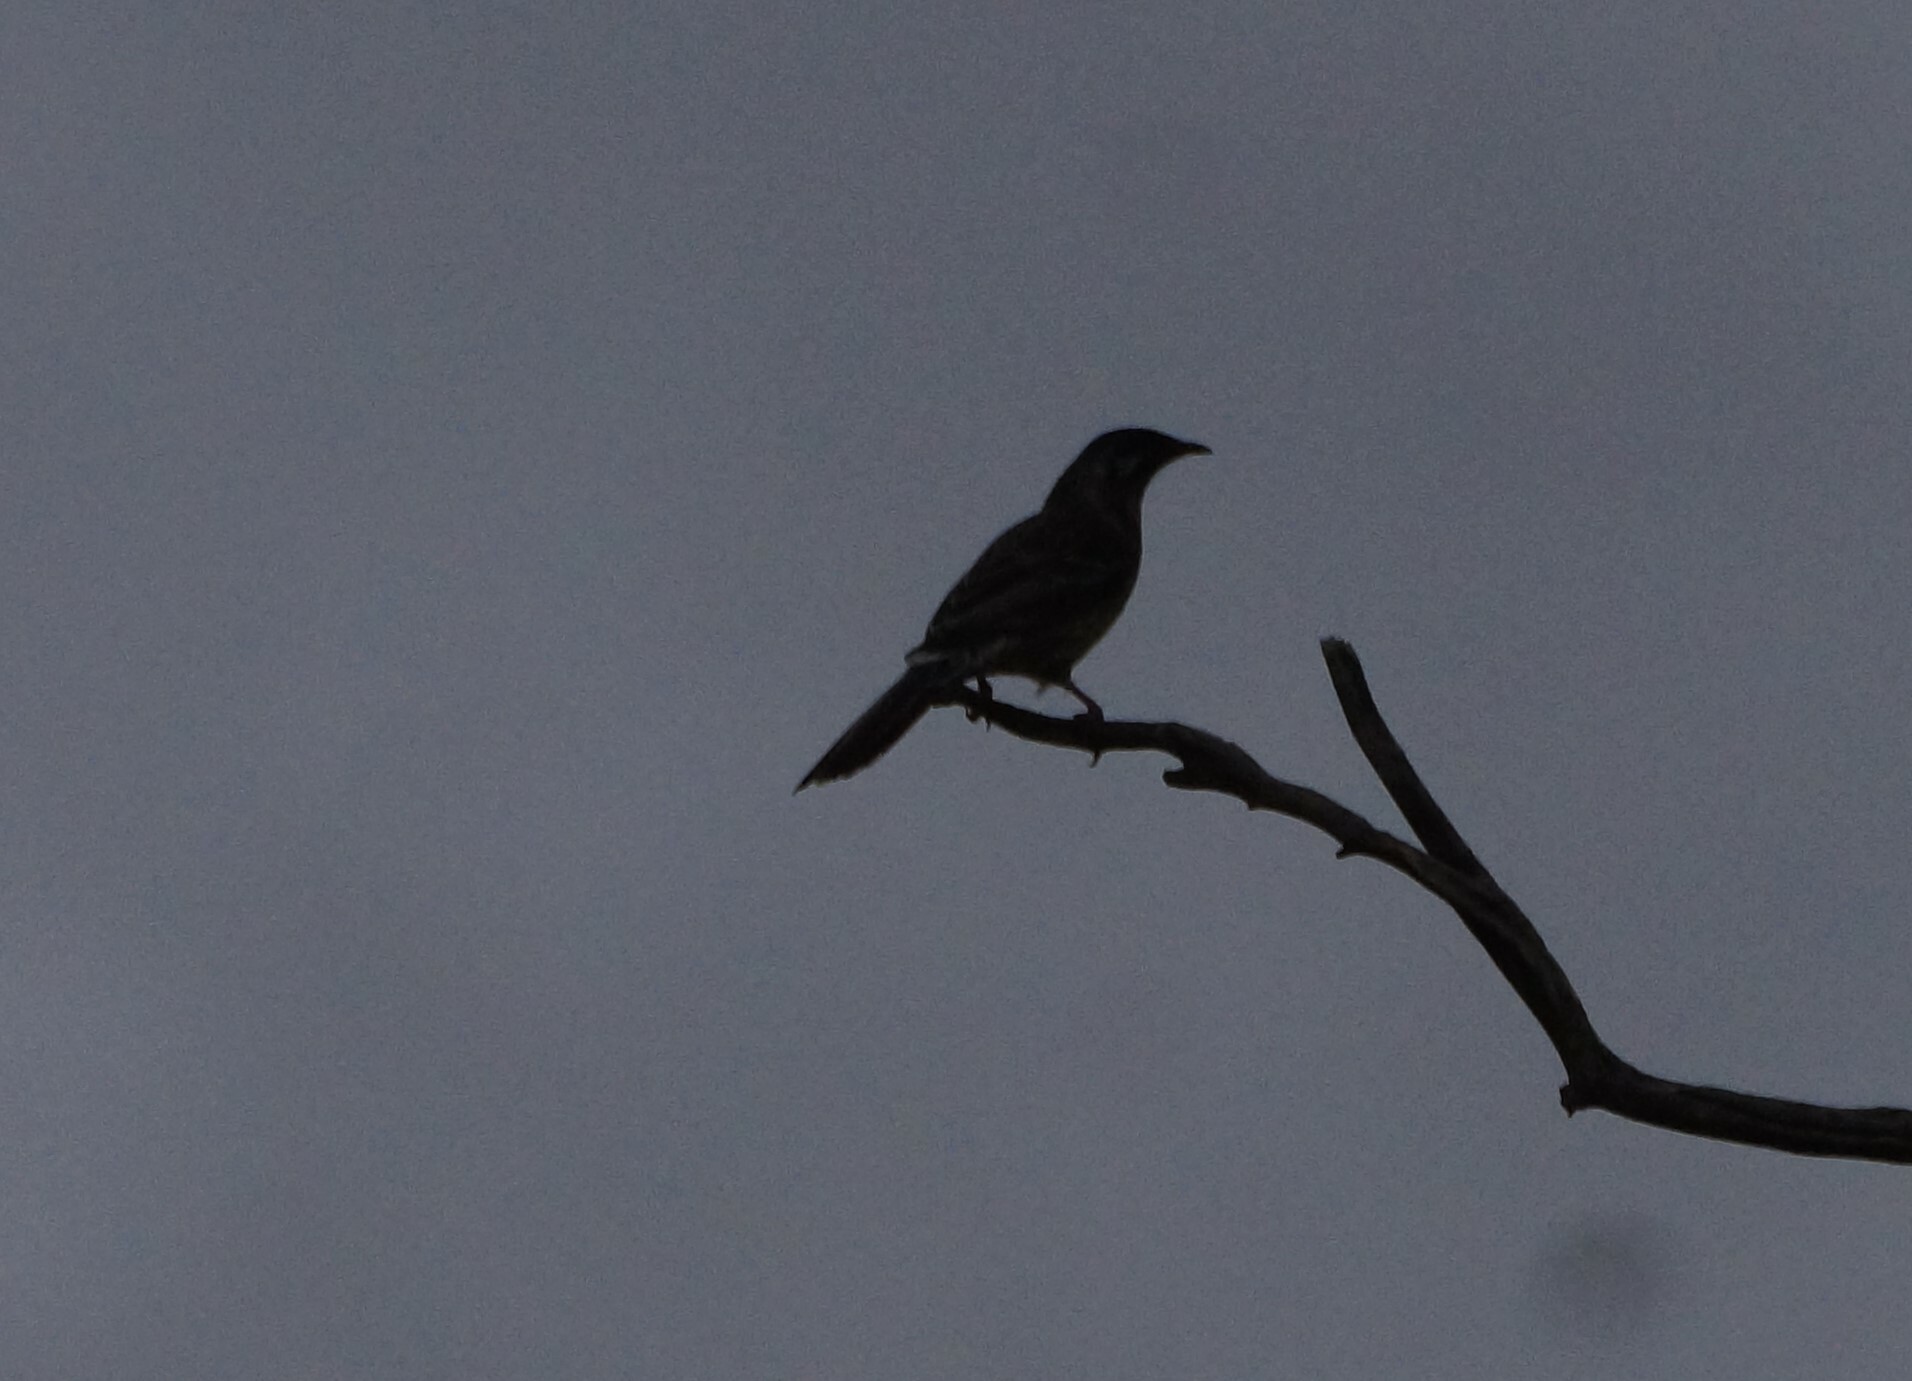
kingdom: Animalia
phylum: Chordata
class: Aves
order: Passeriformes
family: Meliphagidae
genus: Anthochaera
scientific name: Anthochaera carunculata
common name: Red wattlebird
